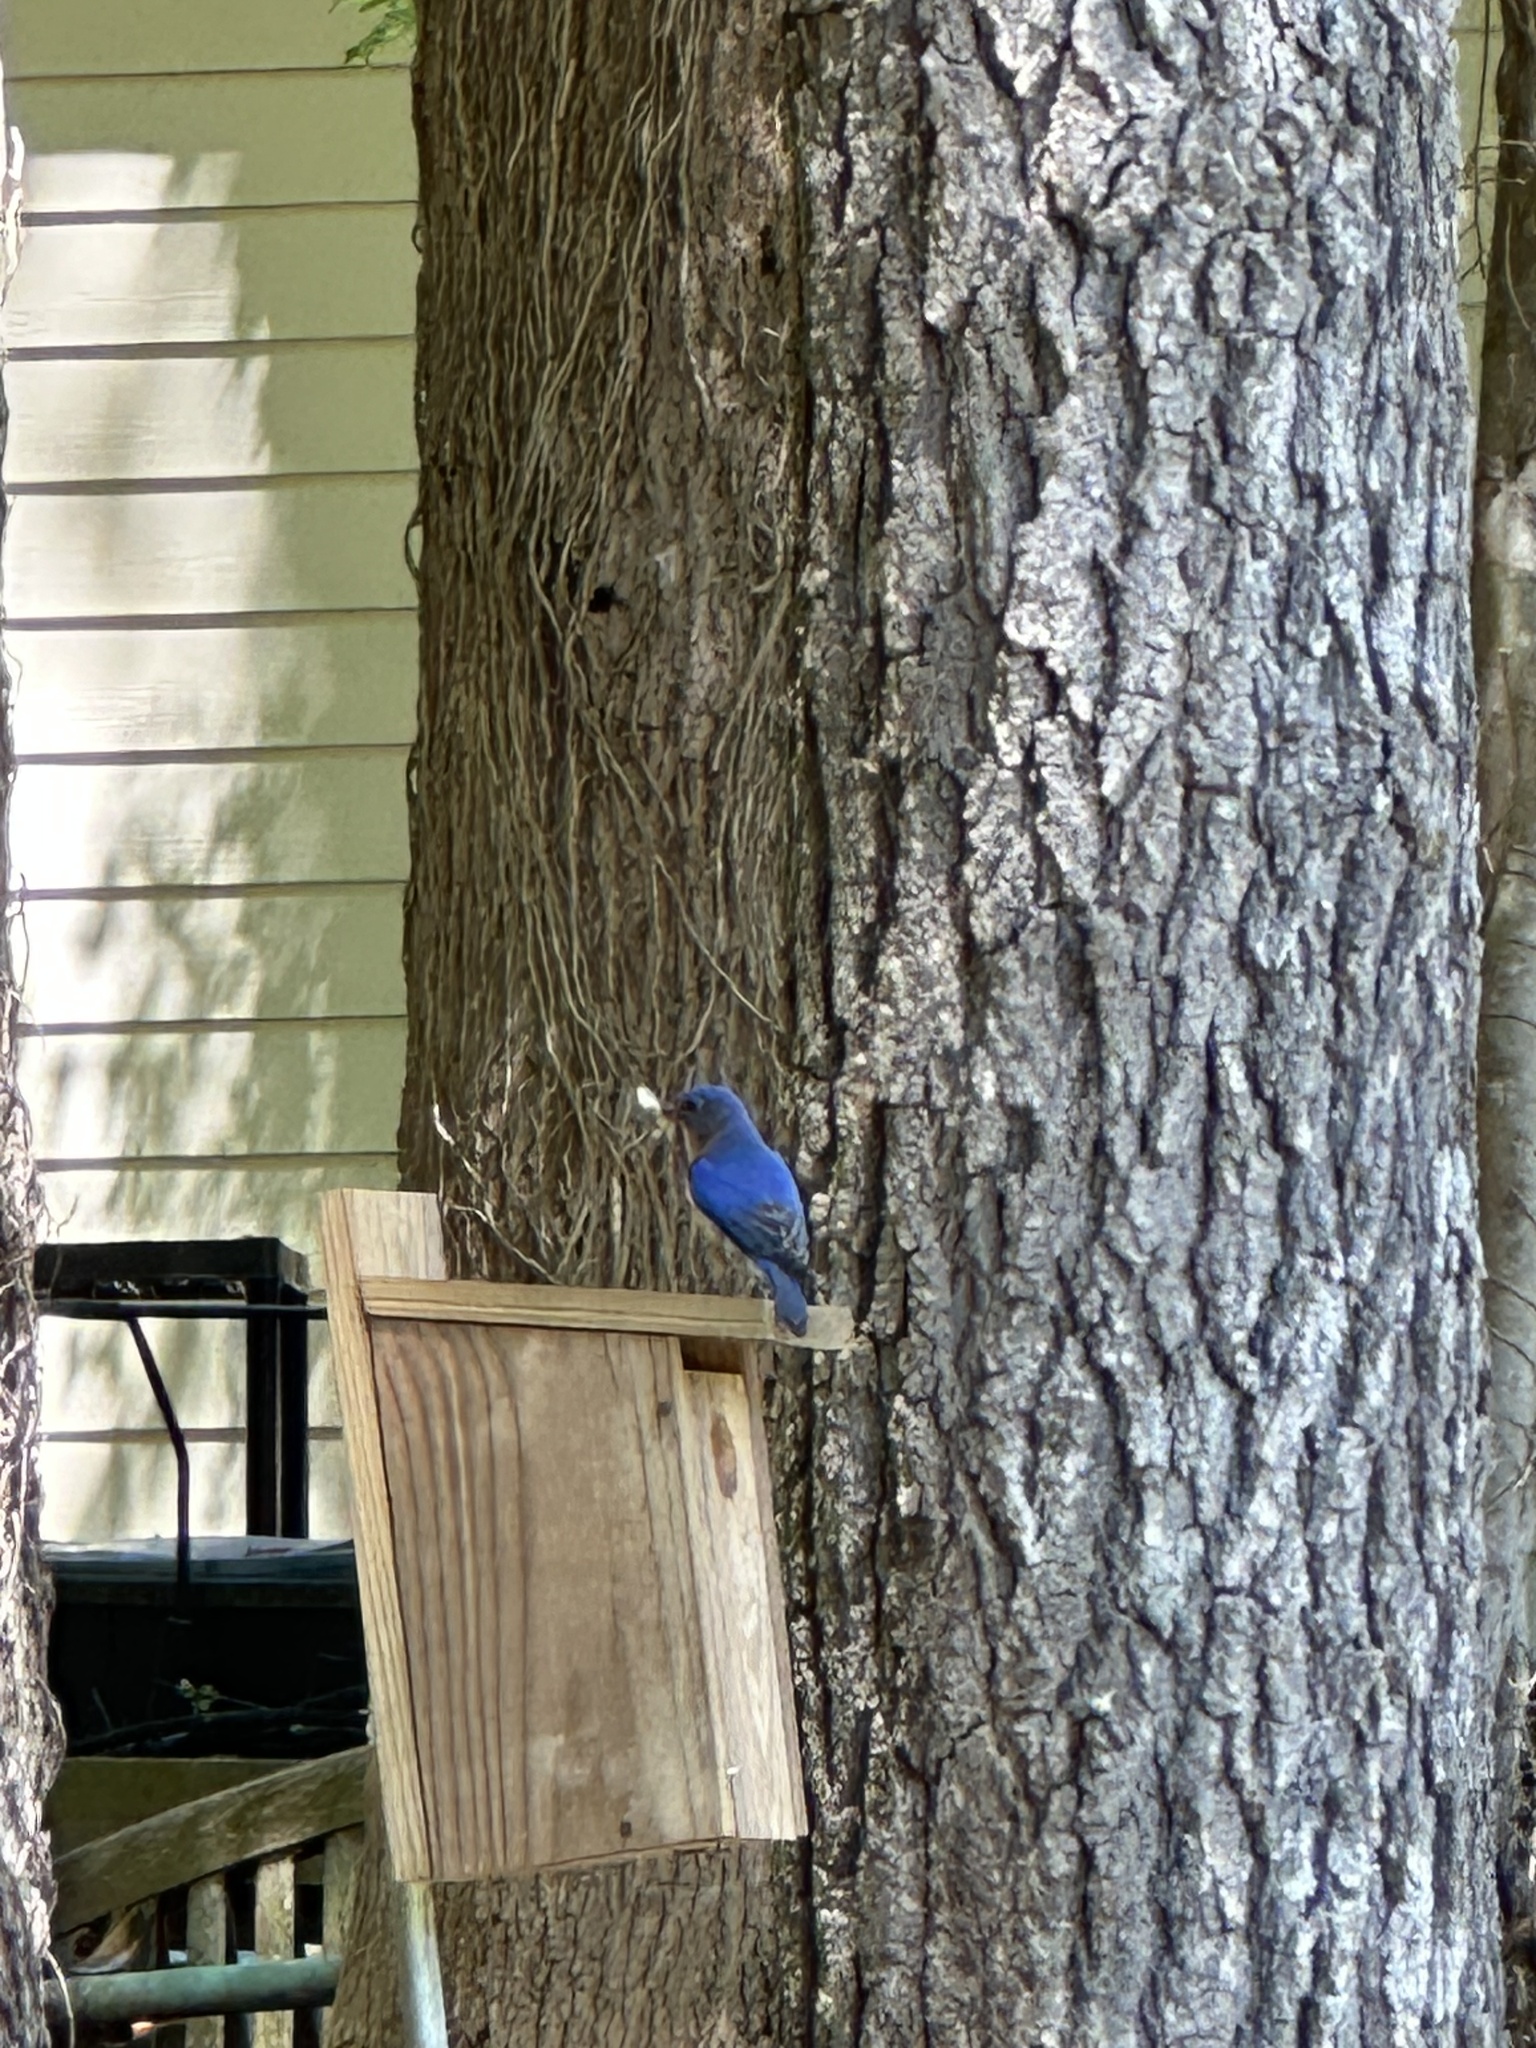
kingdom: Animalia
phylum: Chordata
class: Aves
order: Passeriformes
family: Turdidae
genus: Sialia
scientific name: Sialia sialis
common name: Eastern bluebird
